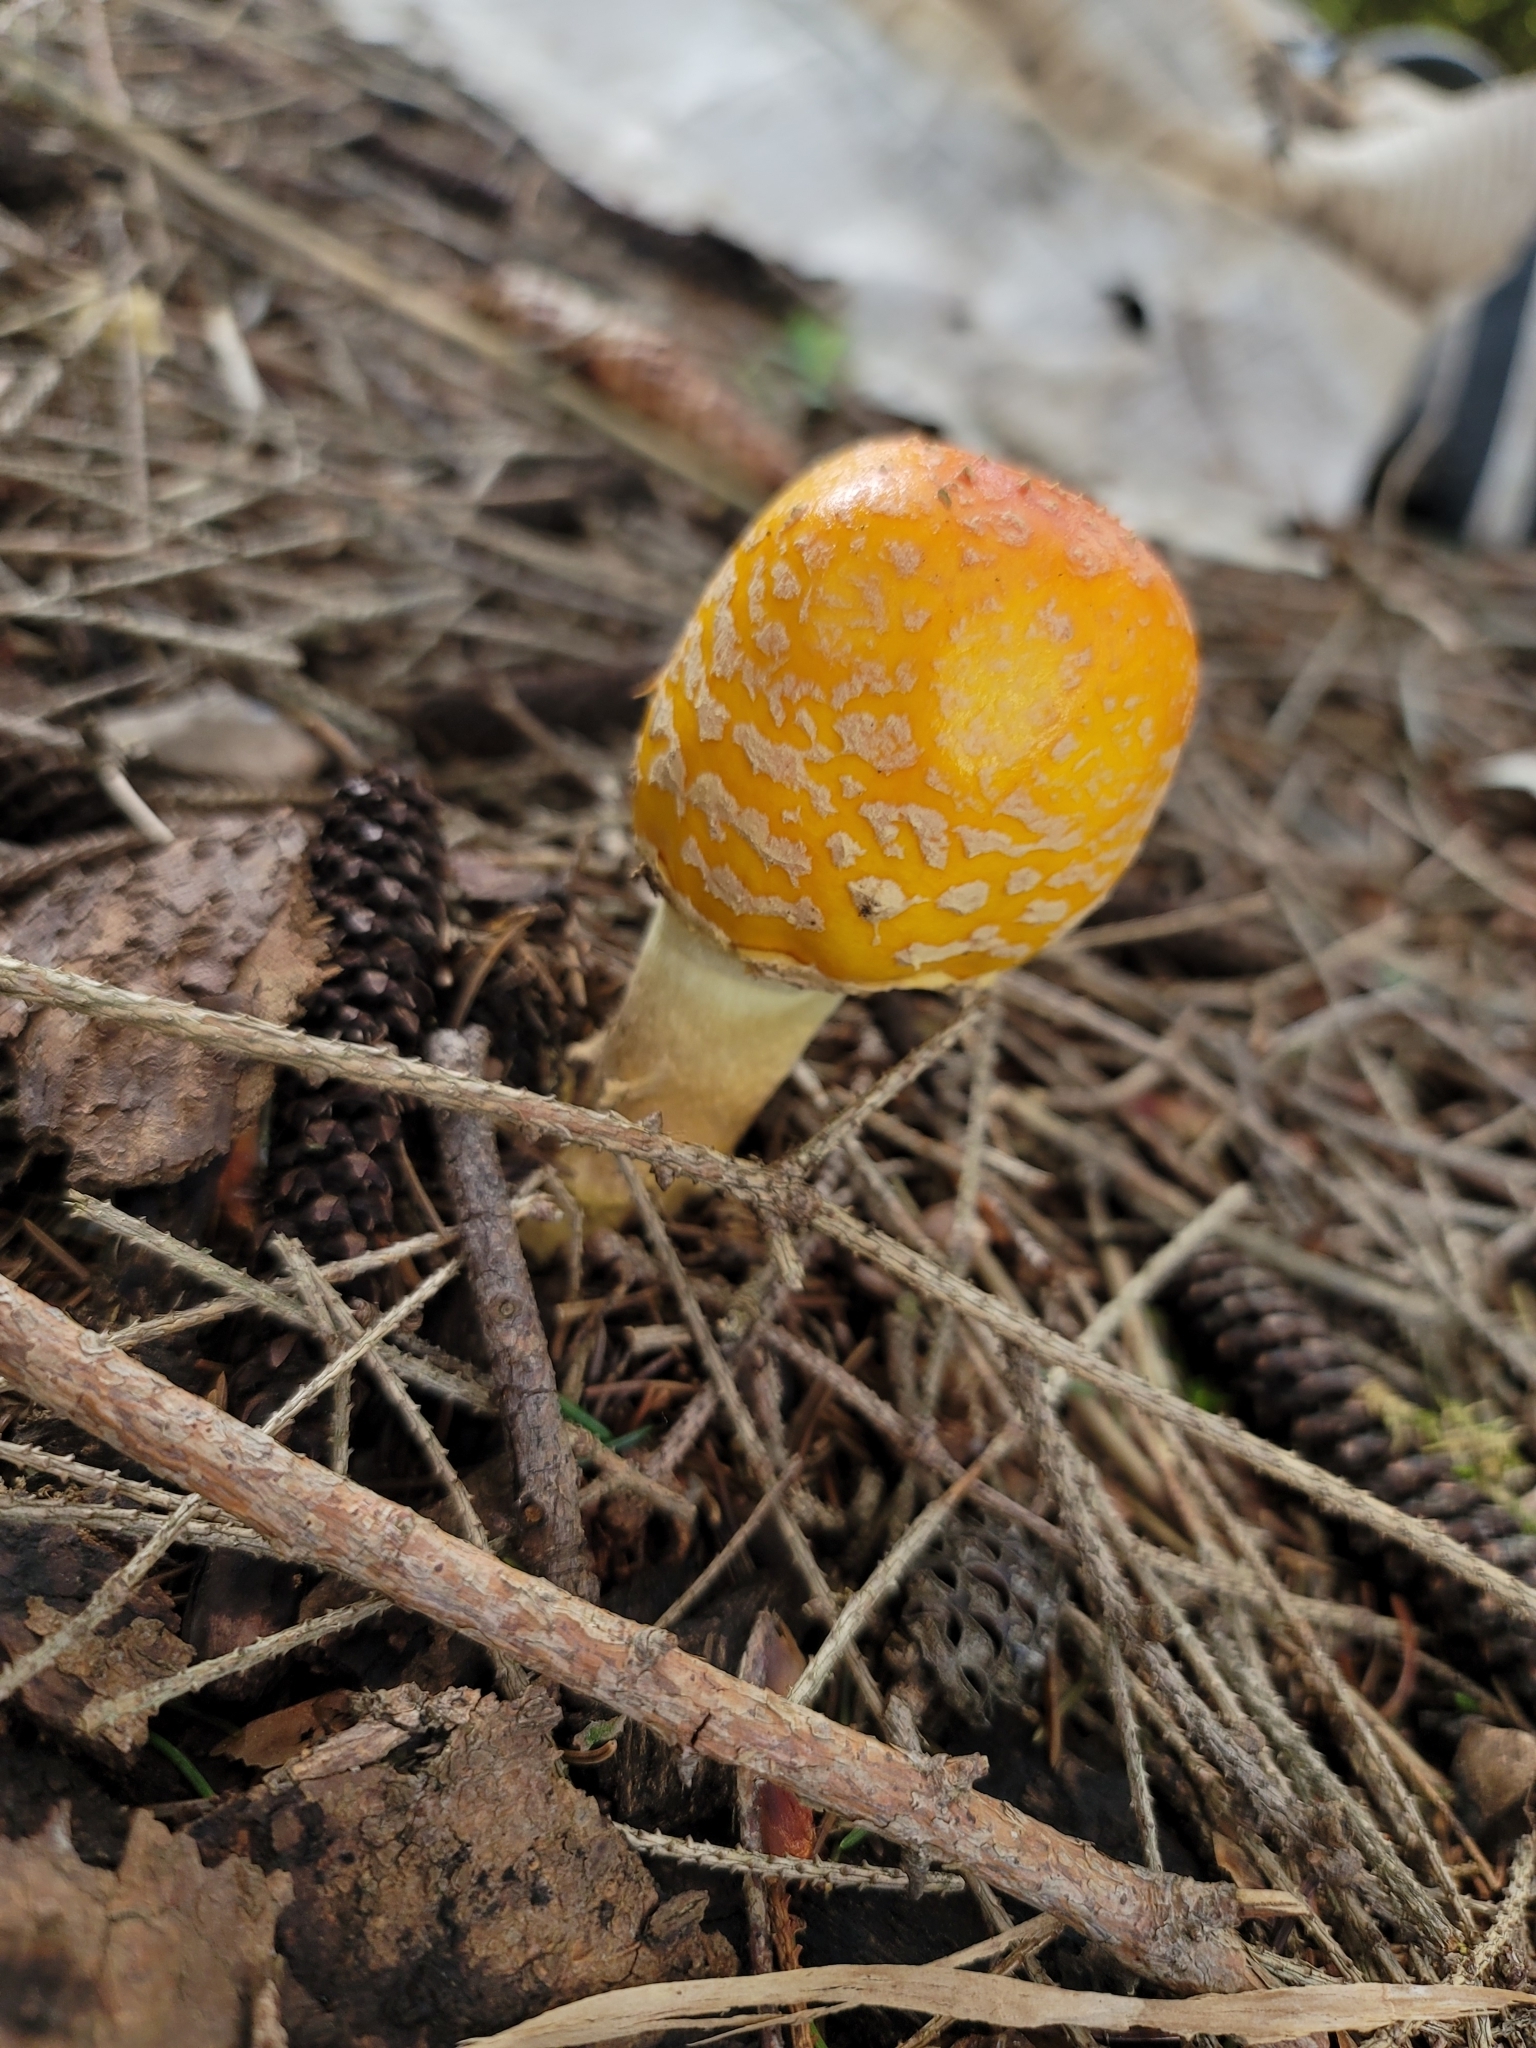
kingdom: Fungi
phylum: Basidiomycota
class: Agaricomycetes
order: Agaricales
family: Amanitaceae
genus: Amanita
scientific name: Amanita muscaria
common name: Fly agaric
